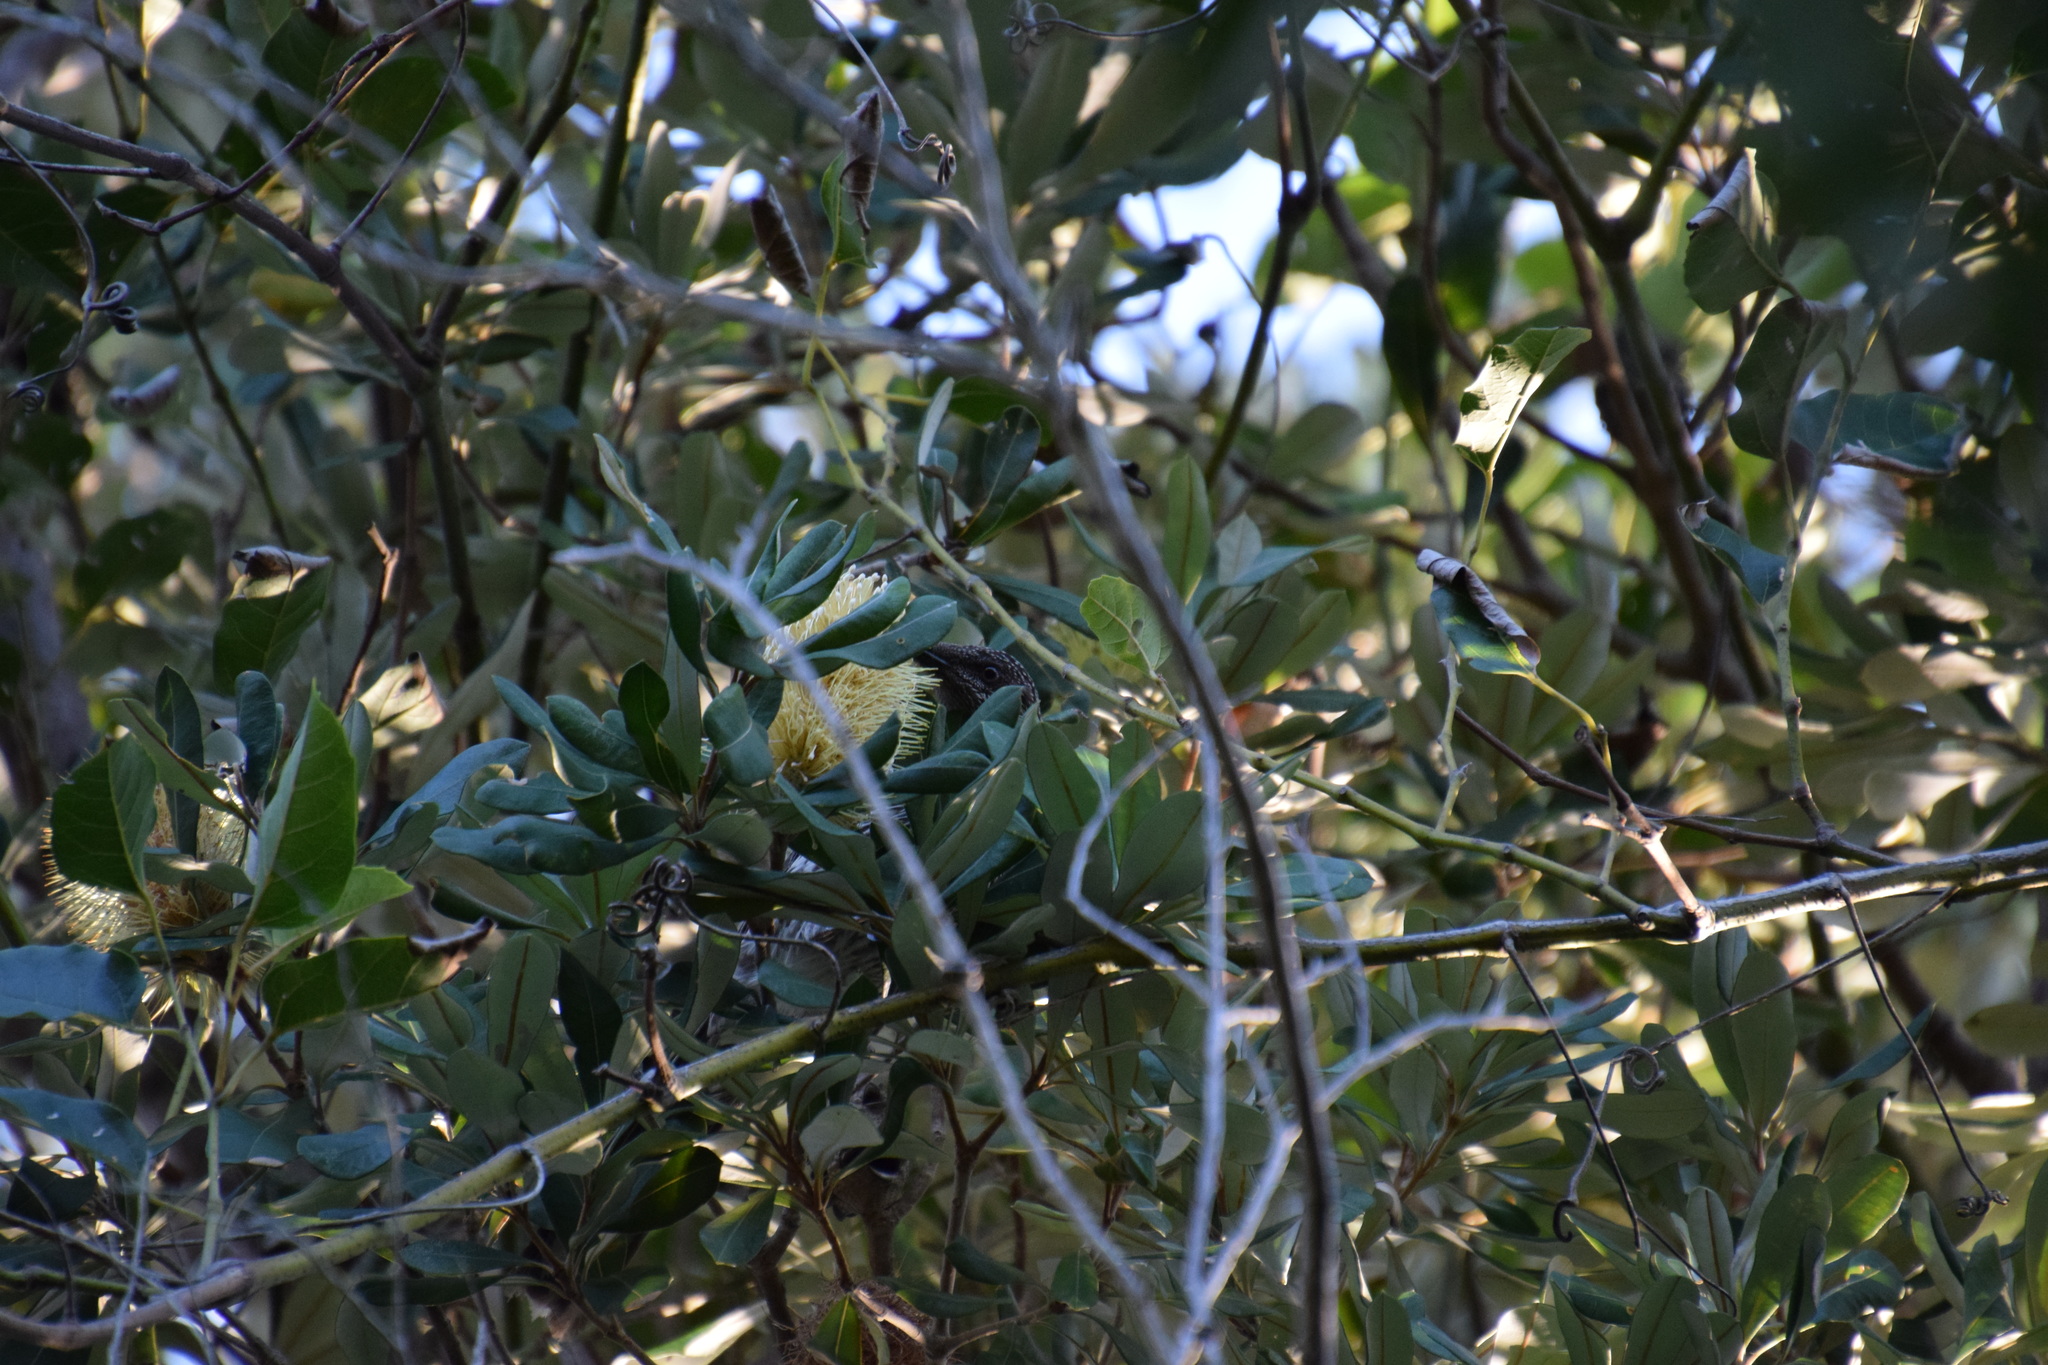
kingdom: Animalia
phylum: Chordata
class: Aves
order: Passeriformes
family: Meliphagidae
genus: Anthochaera
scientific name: Anthochaera chrysoptera
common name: Little wattlebird
